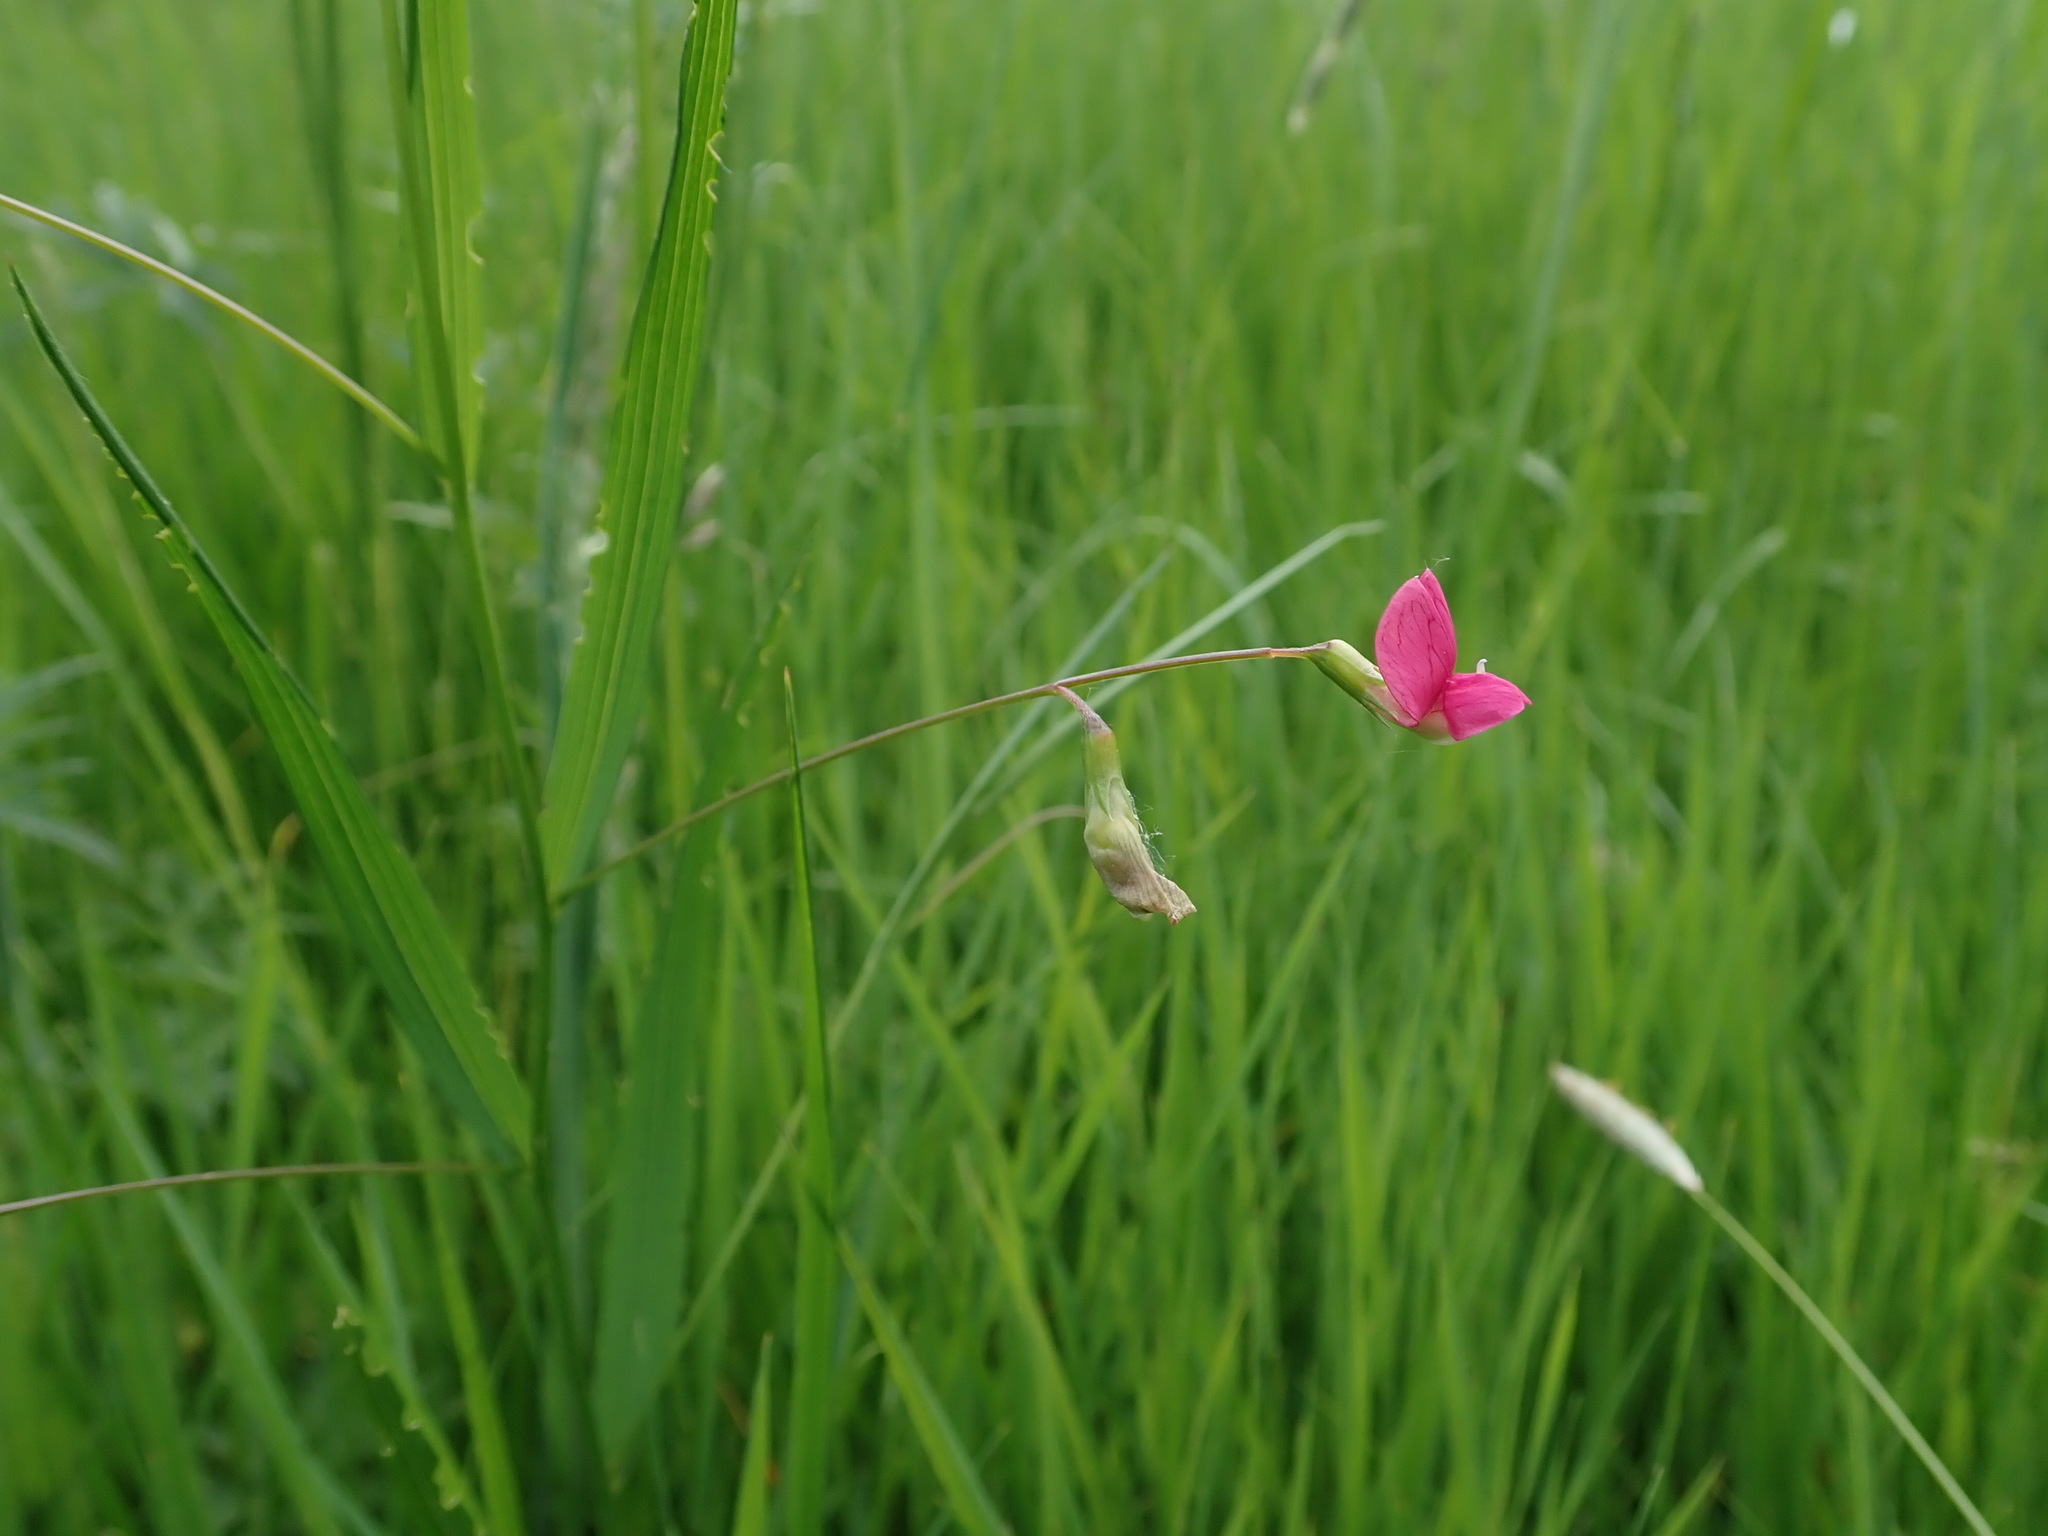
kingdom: Plantae
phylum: Tracheophyta
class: Magnoliopsida
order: Fabales
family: Fabaceae
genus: Lathyrus
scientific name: Lathyrus nissolia
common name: Grass vetchling
